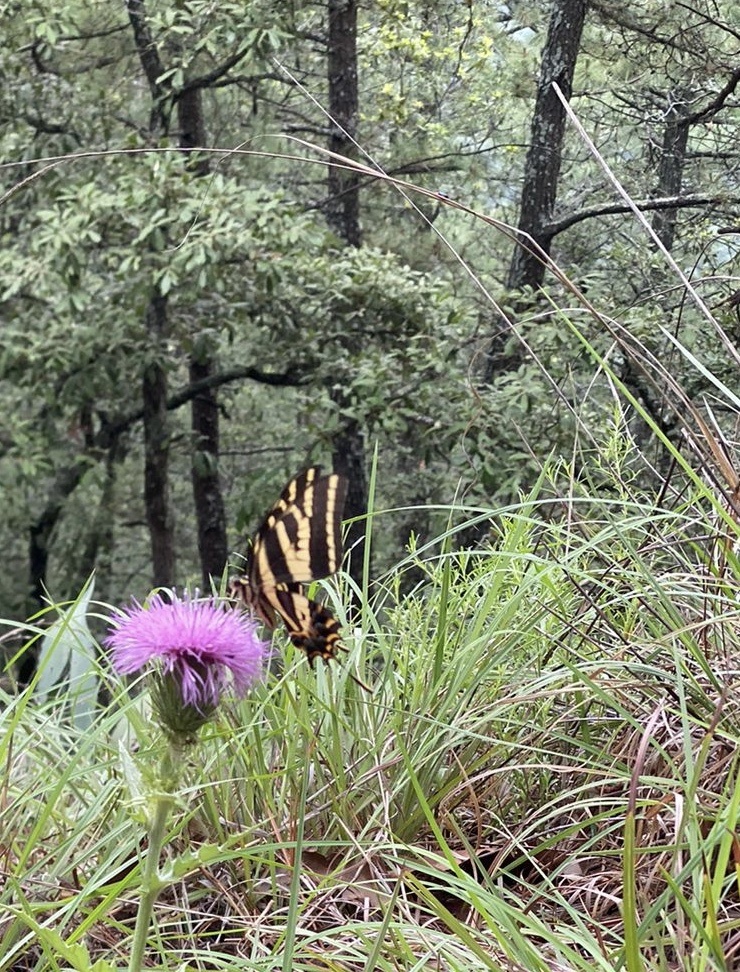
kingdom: Animalia
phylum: Arthropoda
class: Insecta
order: Lepidoptera
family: Papilionidae
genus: Papilio
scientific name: Papilio pilumnus
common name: Three-tailed tiger swallowtail
